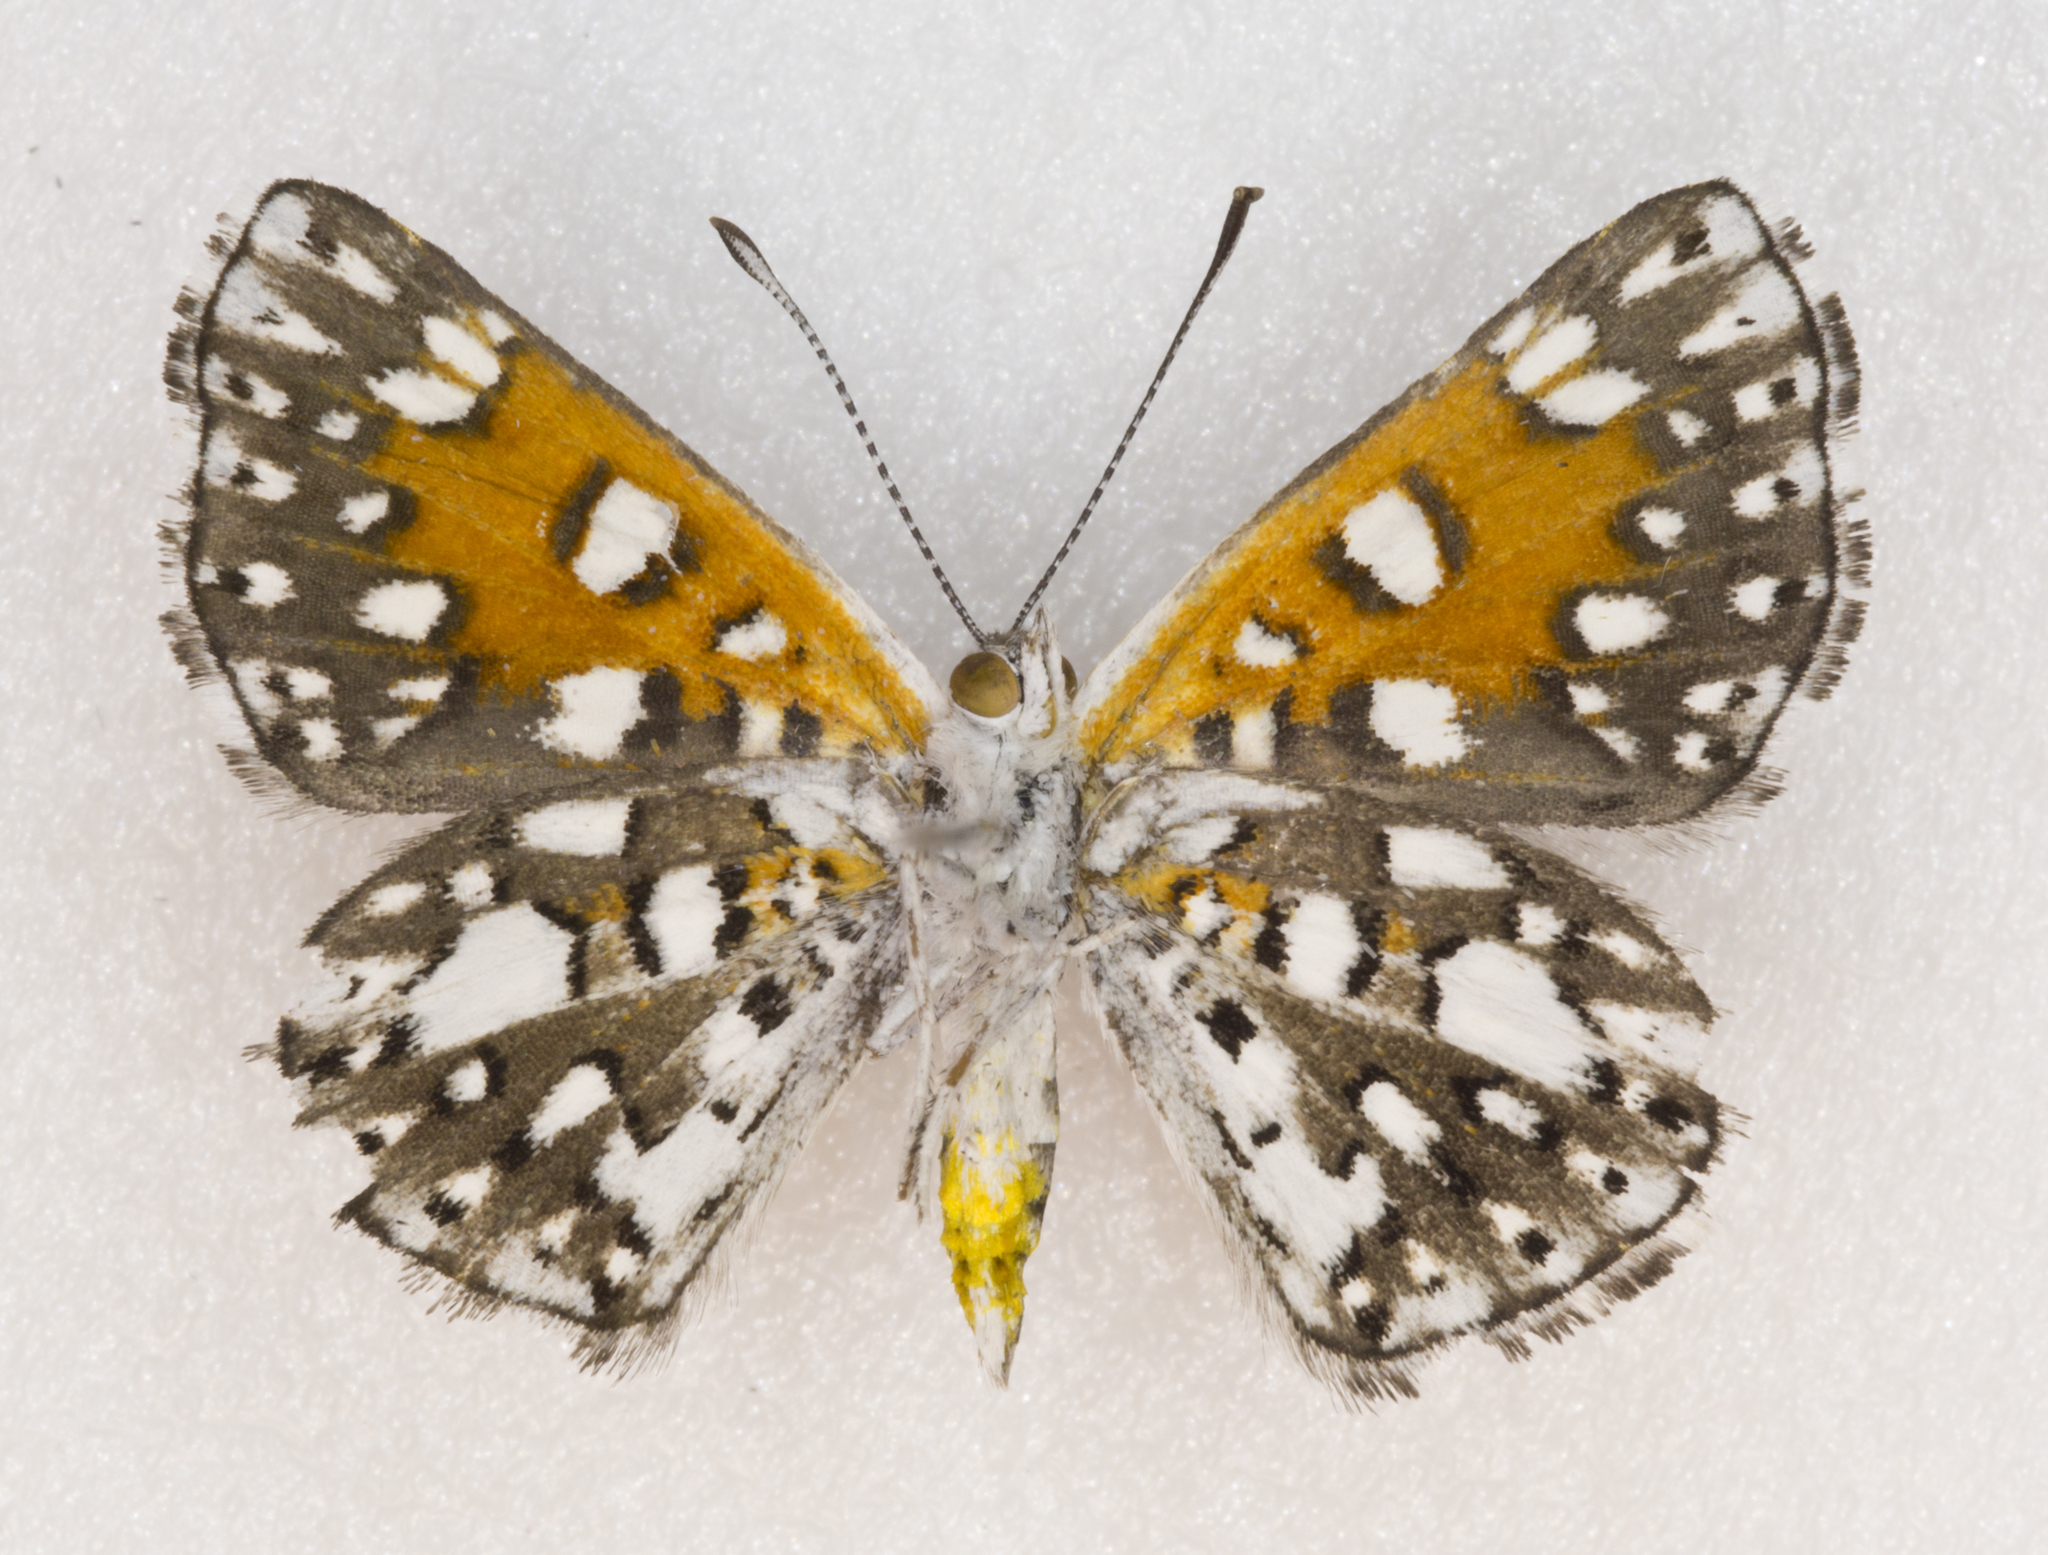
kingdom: Animalia
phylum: Arthropoda
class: Insecta
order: Lepidoptera
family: Riodinidae
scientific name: Riodinidae
